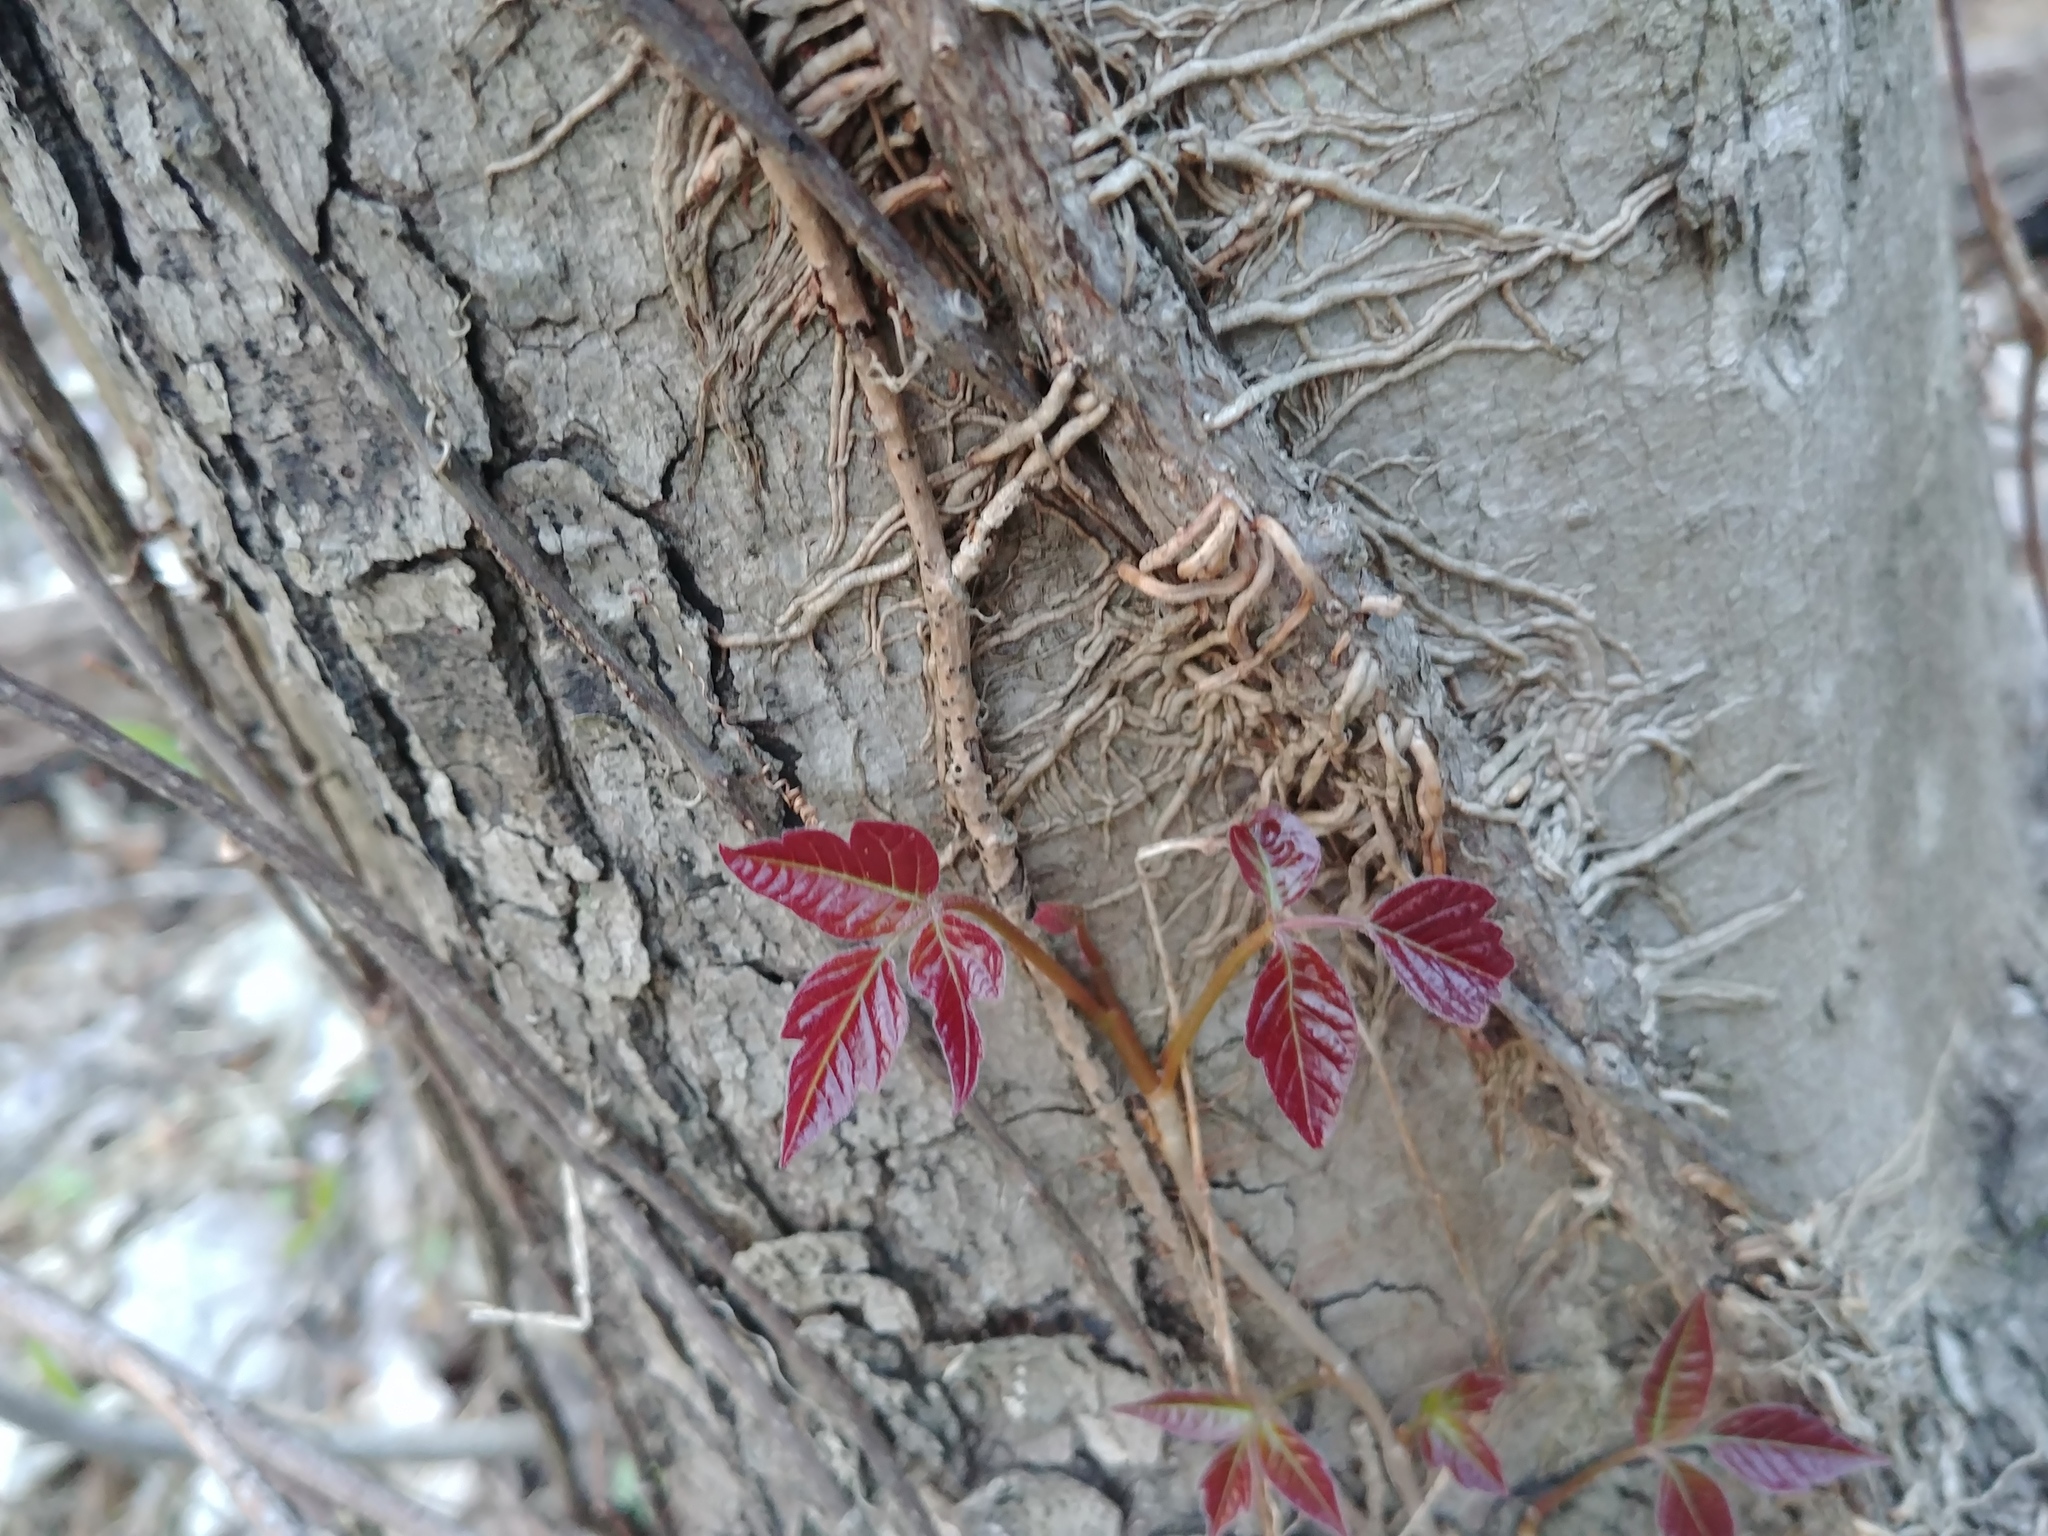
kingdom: Plantae
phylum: Tracheophyta
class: Magnoliopsida
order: Sapindales
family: Anacardiaceae
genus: Toxicodendron
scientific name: Toxicodendron radicans
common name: Poison ivy
